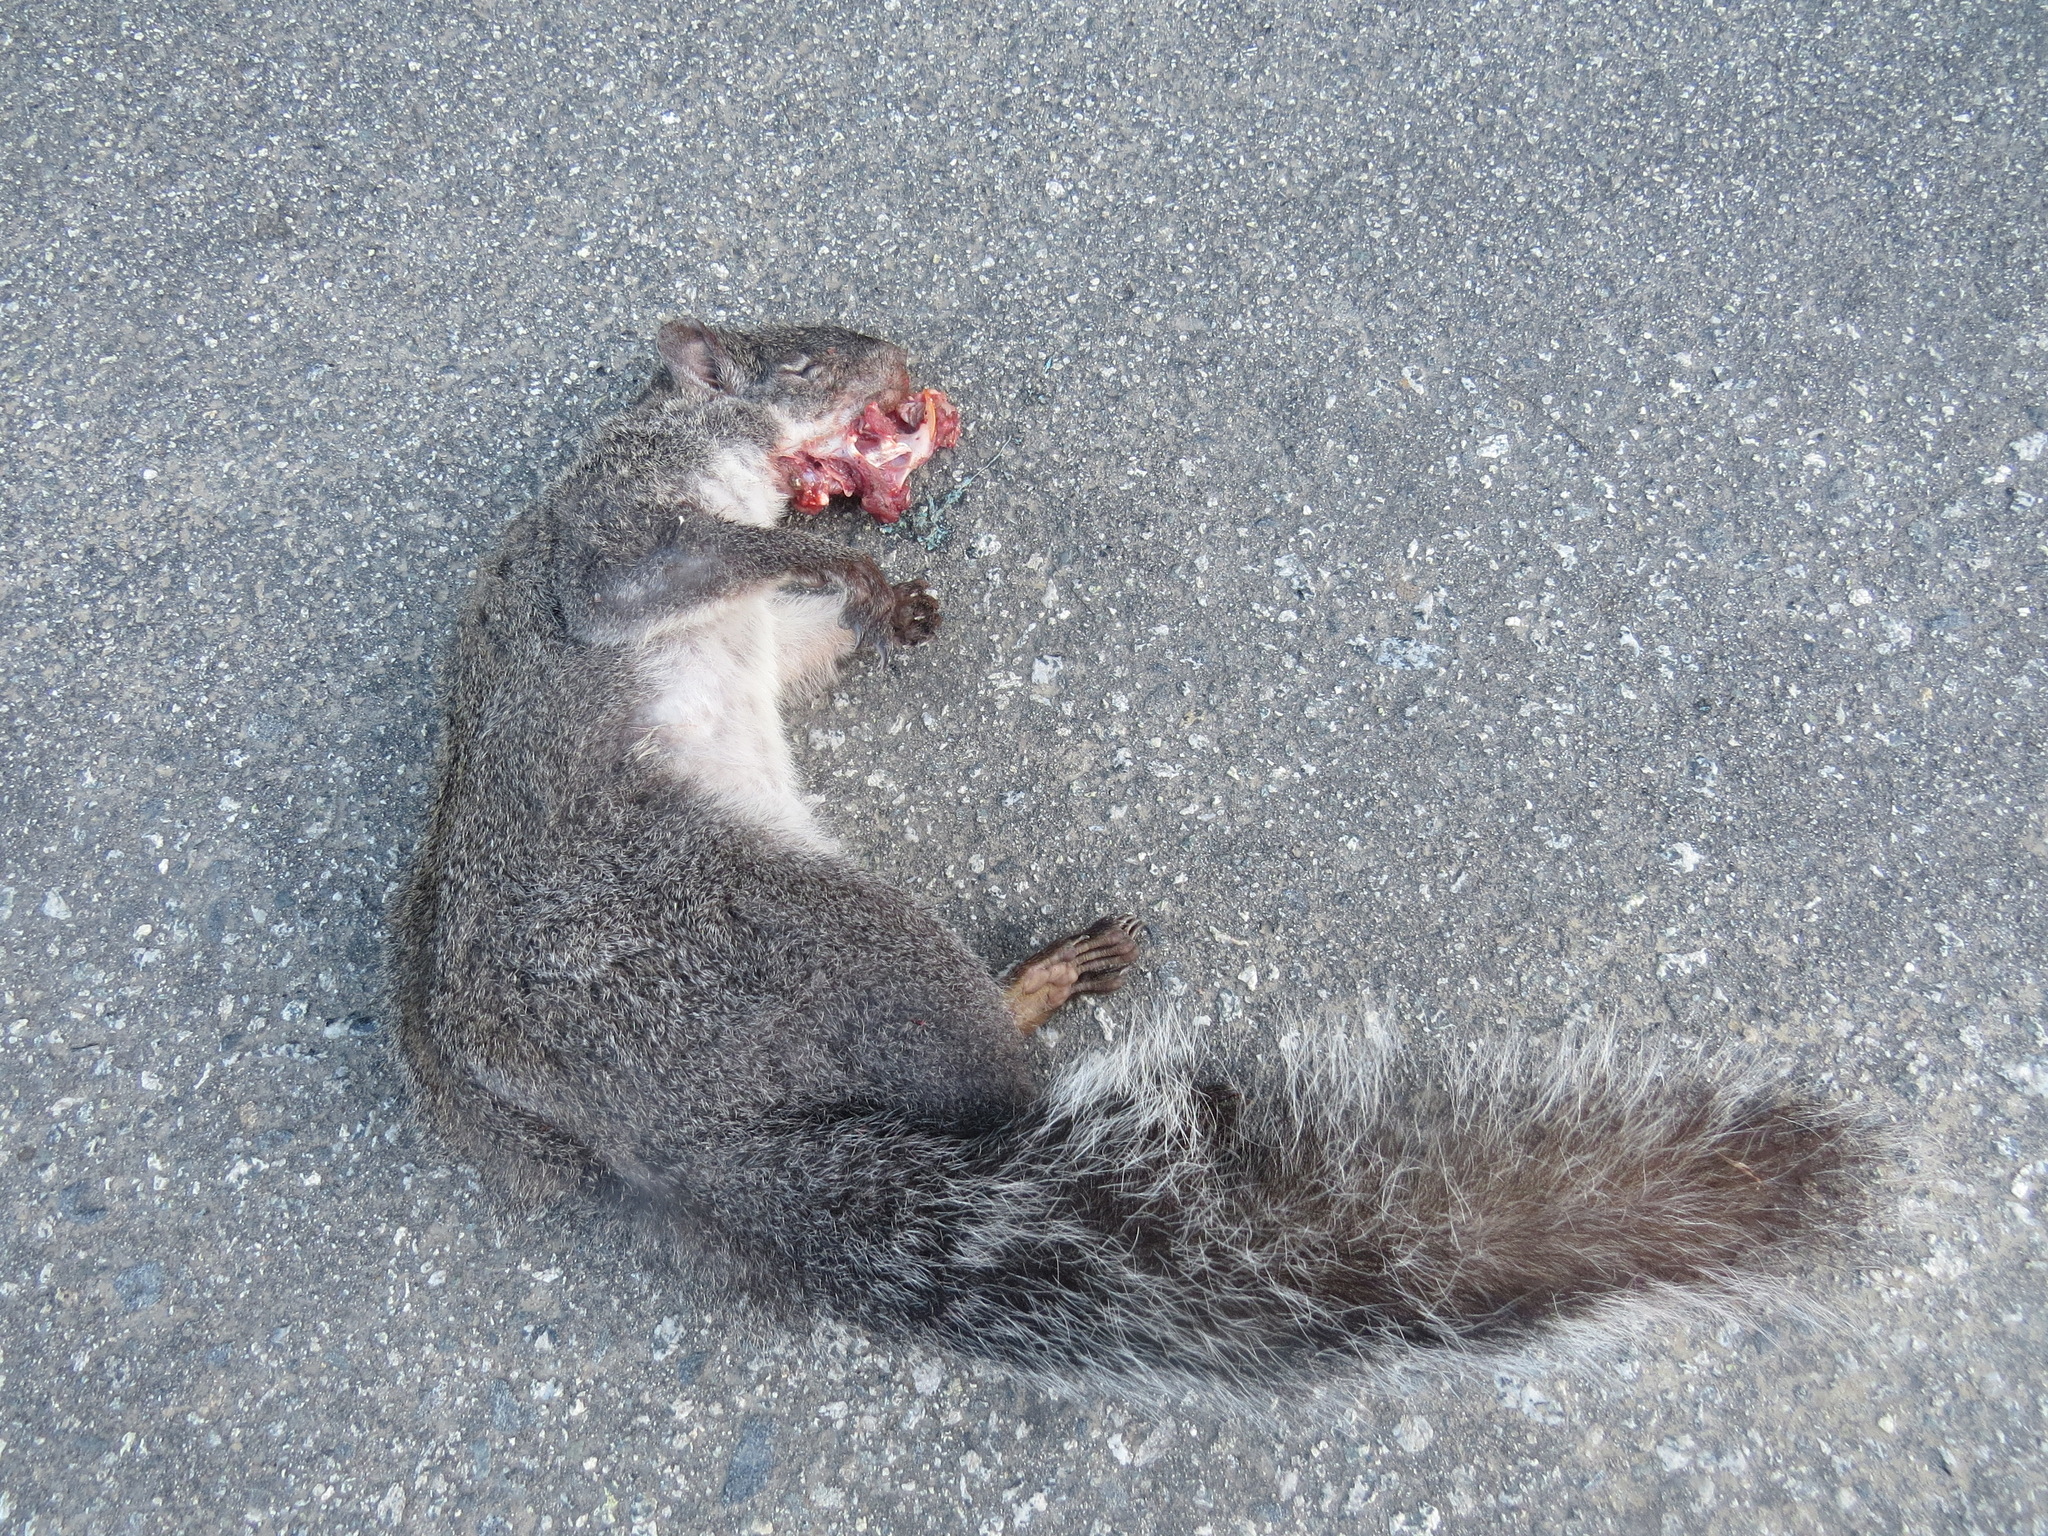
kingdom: Animalia
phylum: Chordata
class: Mammalia
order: Rodentia
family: Sciuridae
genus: Sciurus
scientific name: Sciurus griseus
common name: Western gray squirrel
